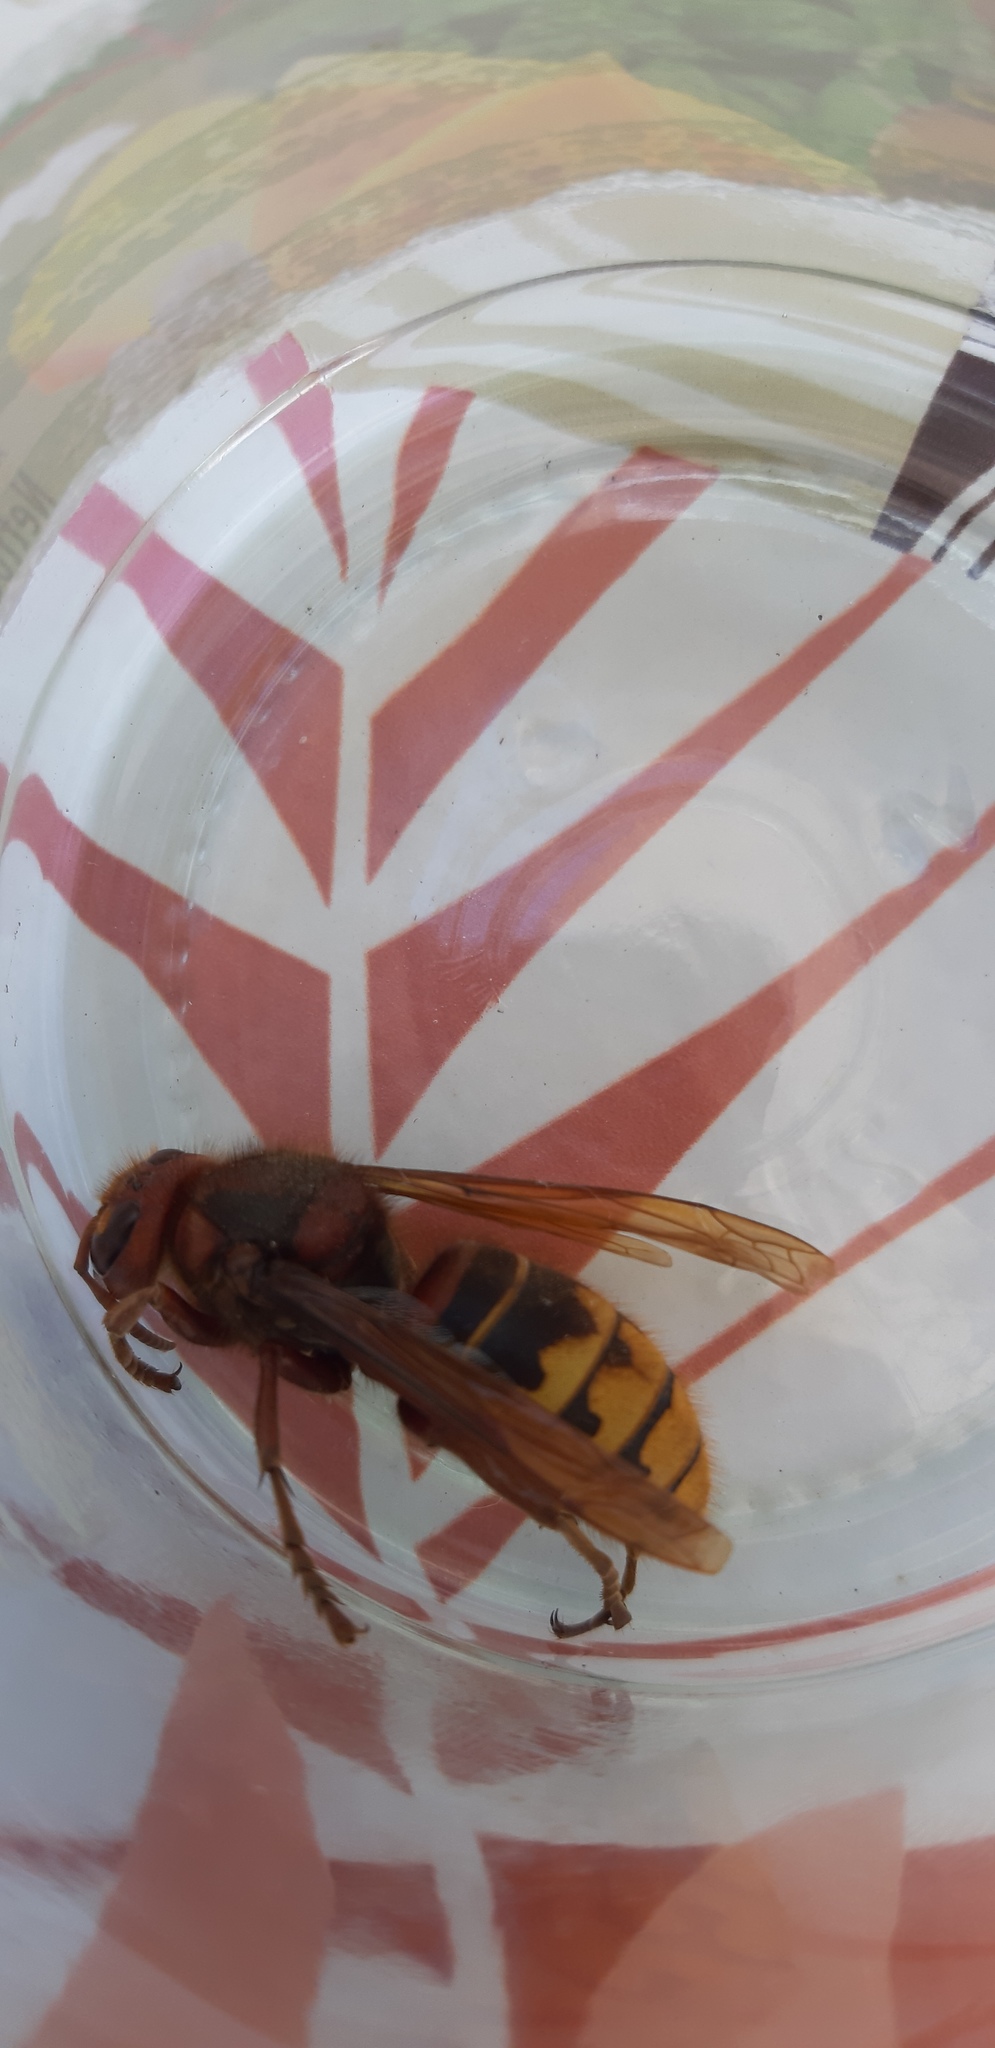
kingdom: Animalia
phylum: Arthropoda
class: Insecta
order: Hymenoptera
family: Vespidae
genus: Vespa
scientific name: Vespa crabro
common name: Hornet
